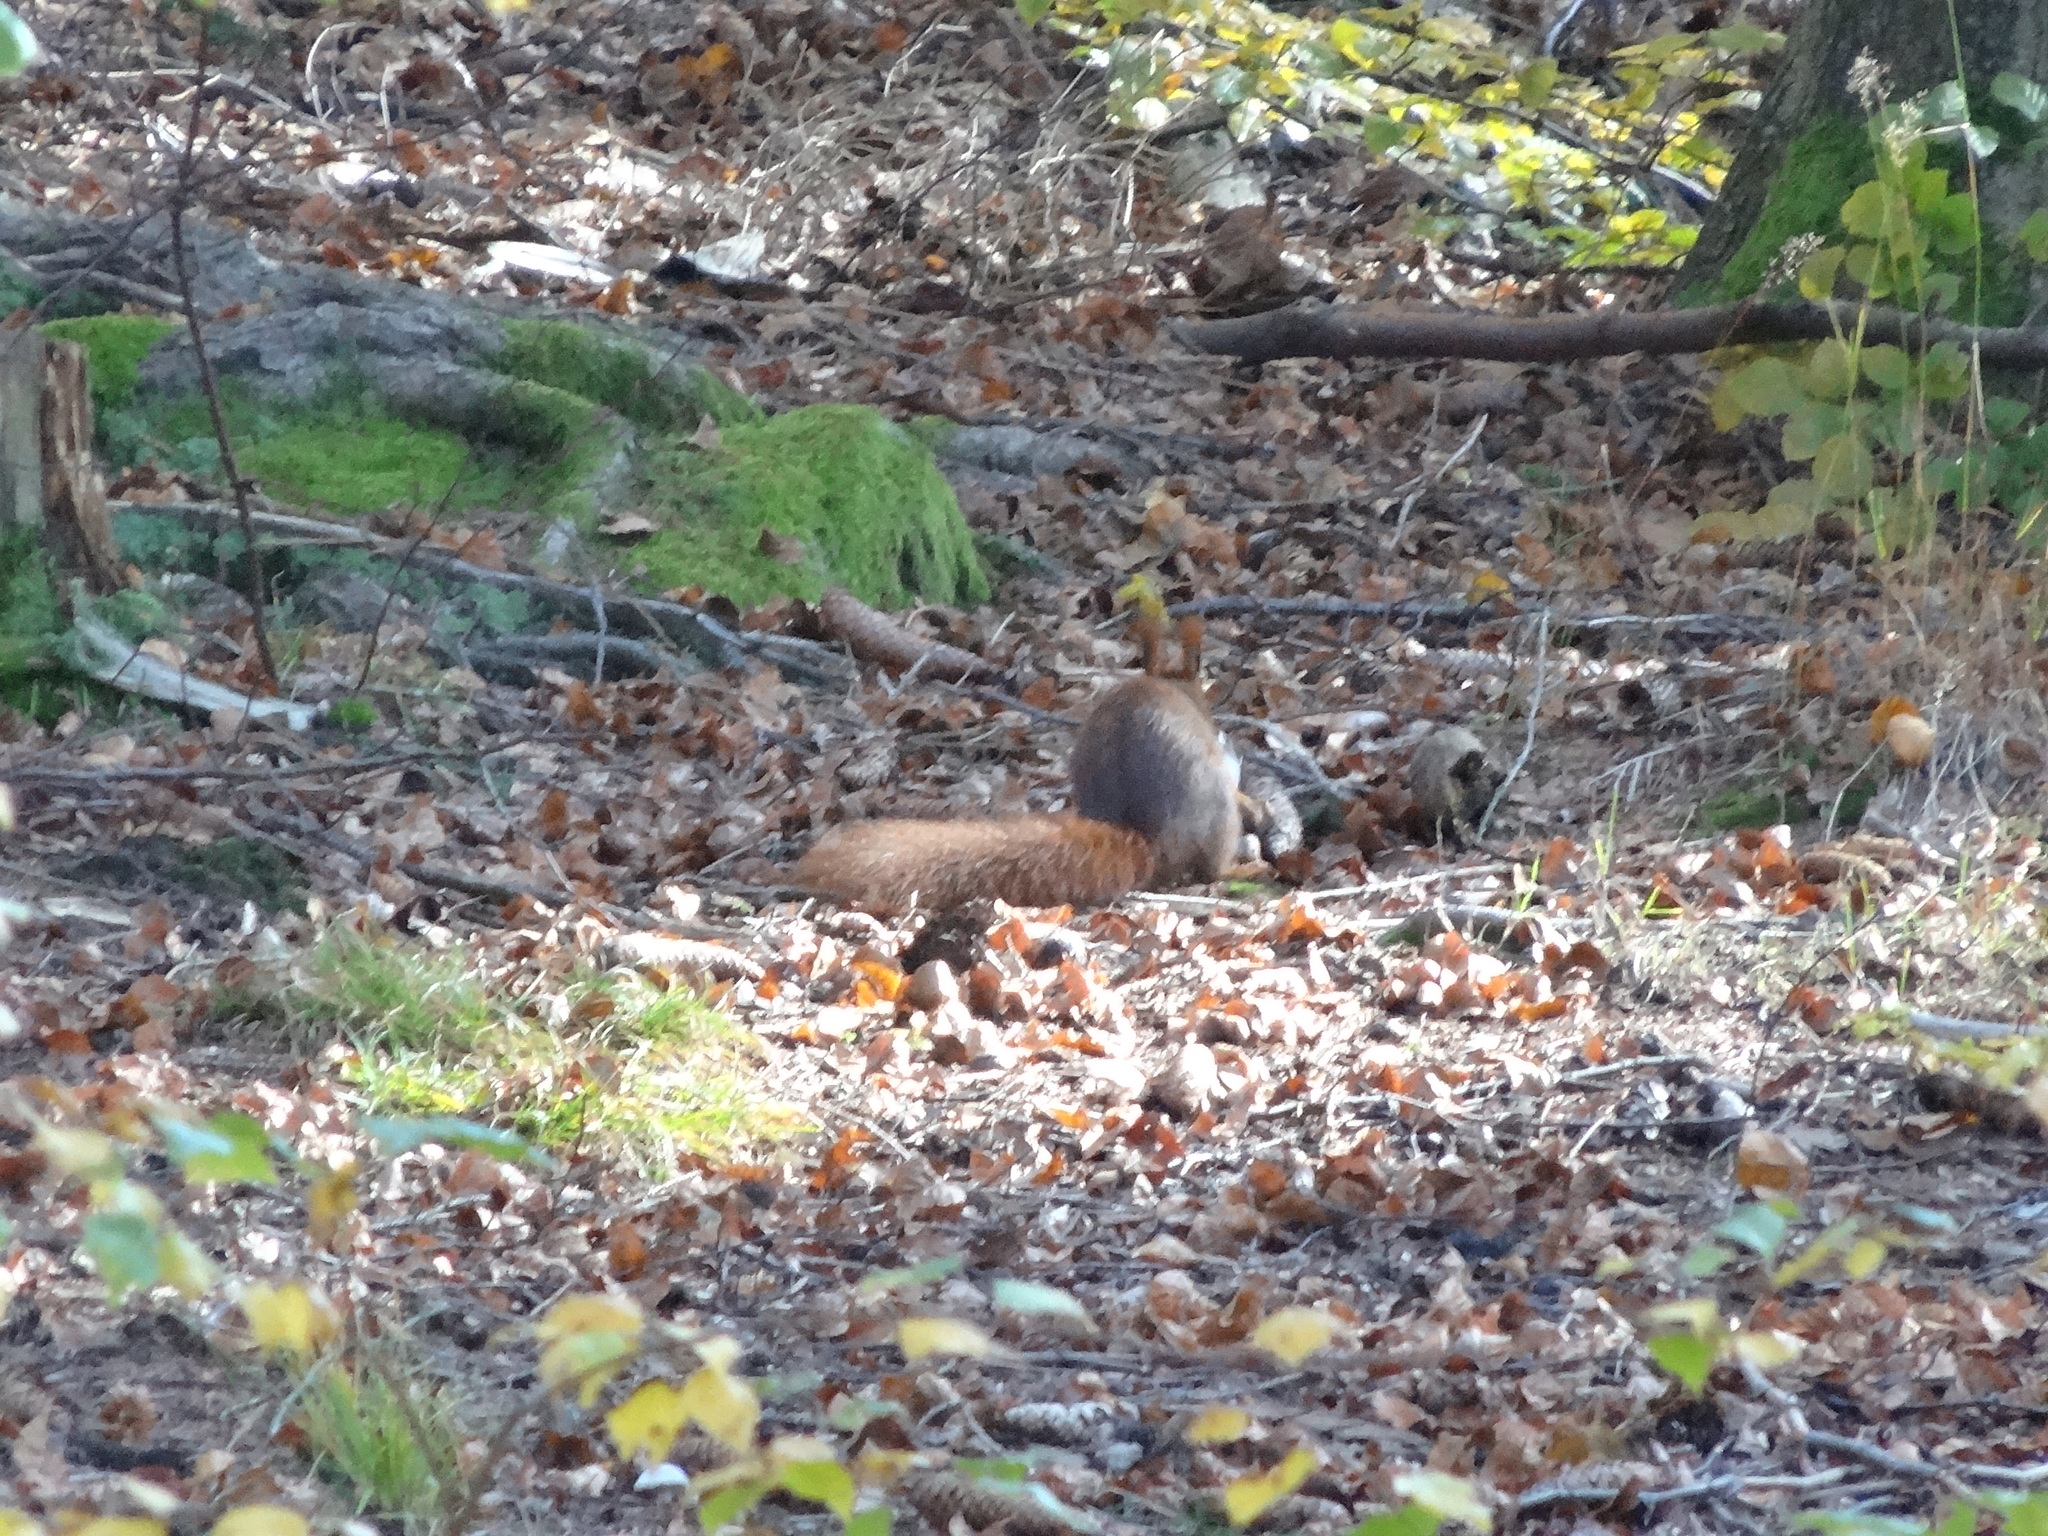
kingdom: Animalia
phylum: Chordata
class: Mammalia
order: Rodentia
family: Sciuridae
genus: Sciurus
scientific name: Sciurus vulgaris
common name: Eurasian red squirrel
